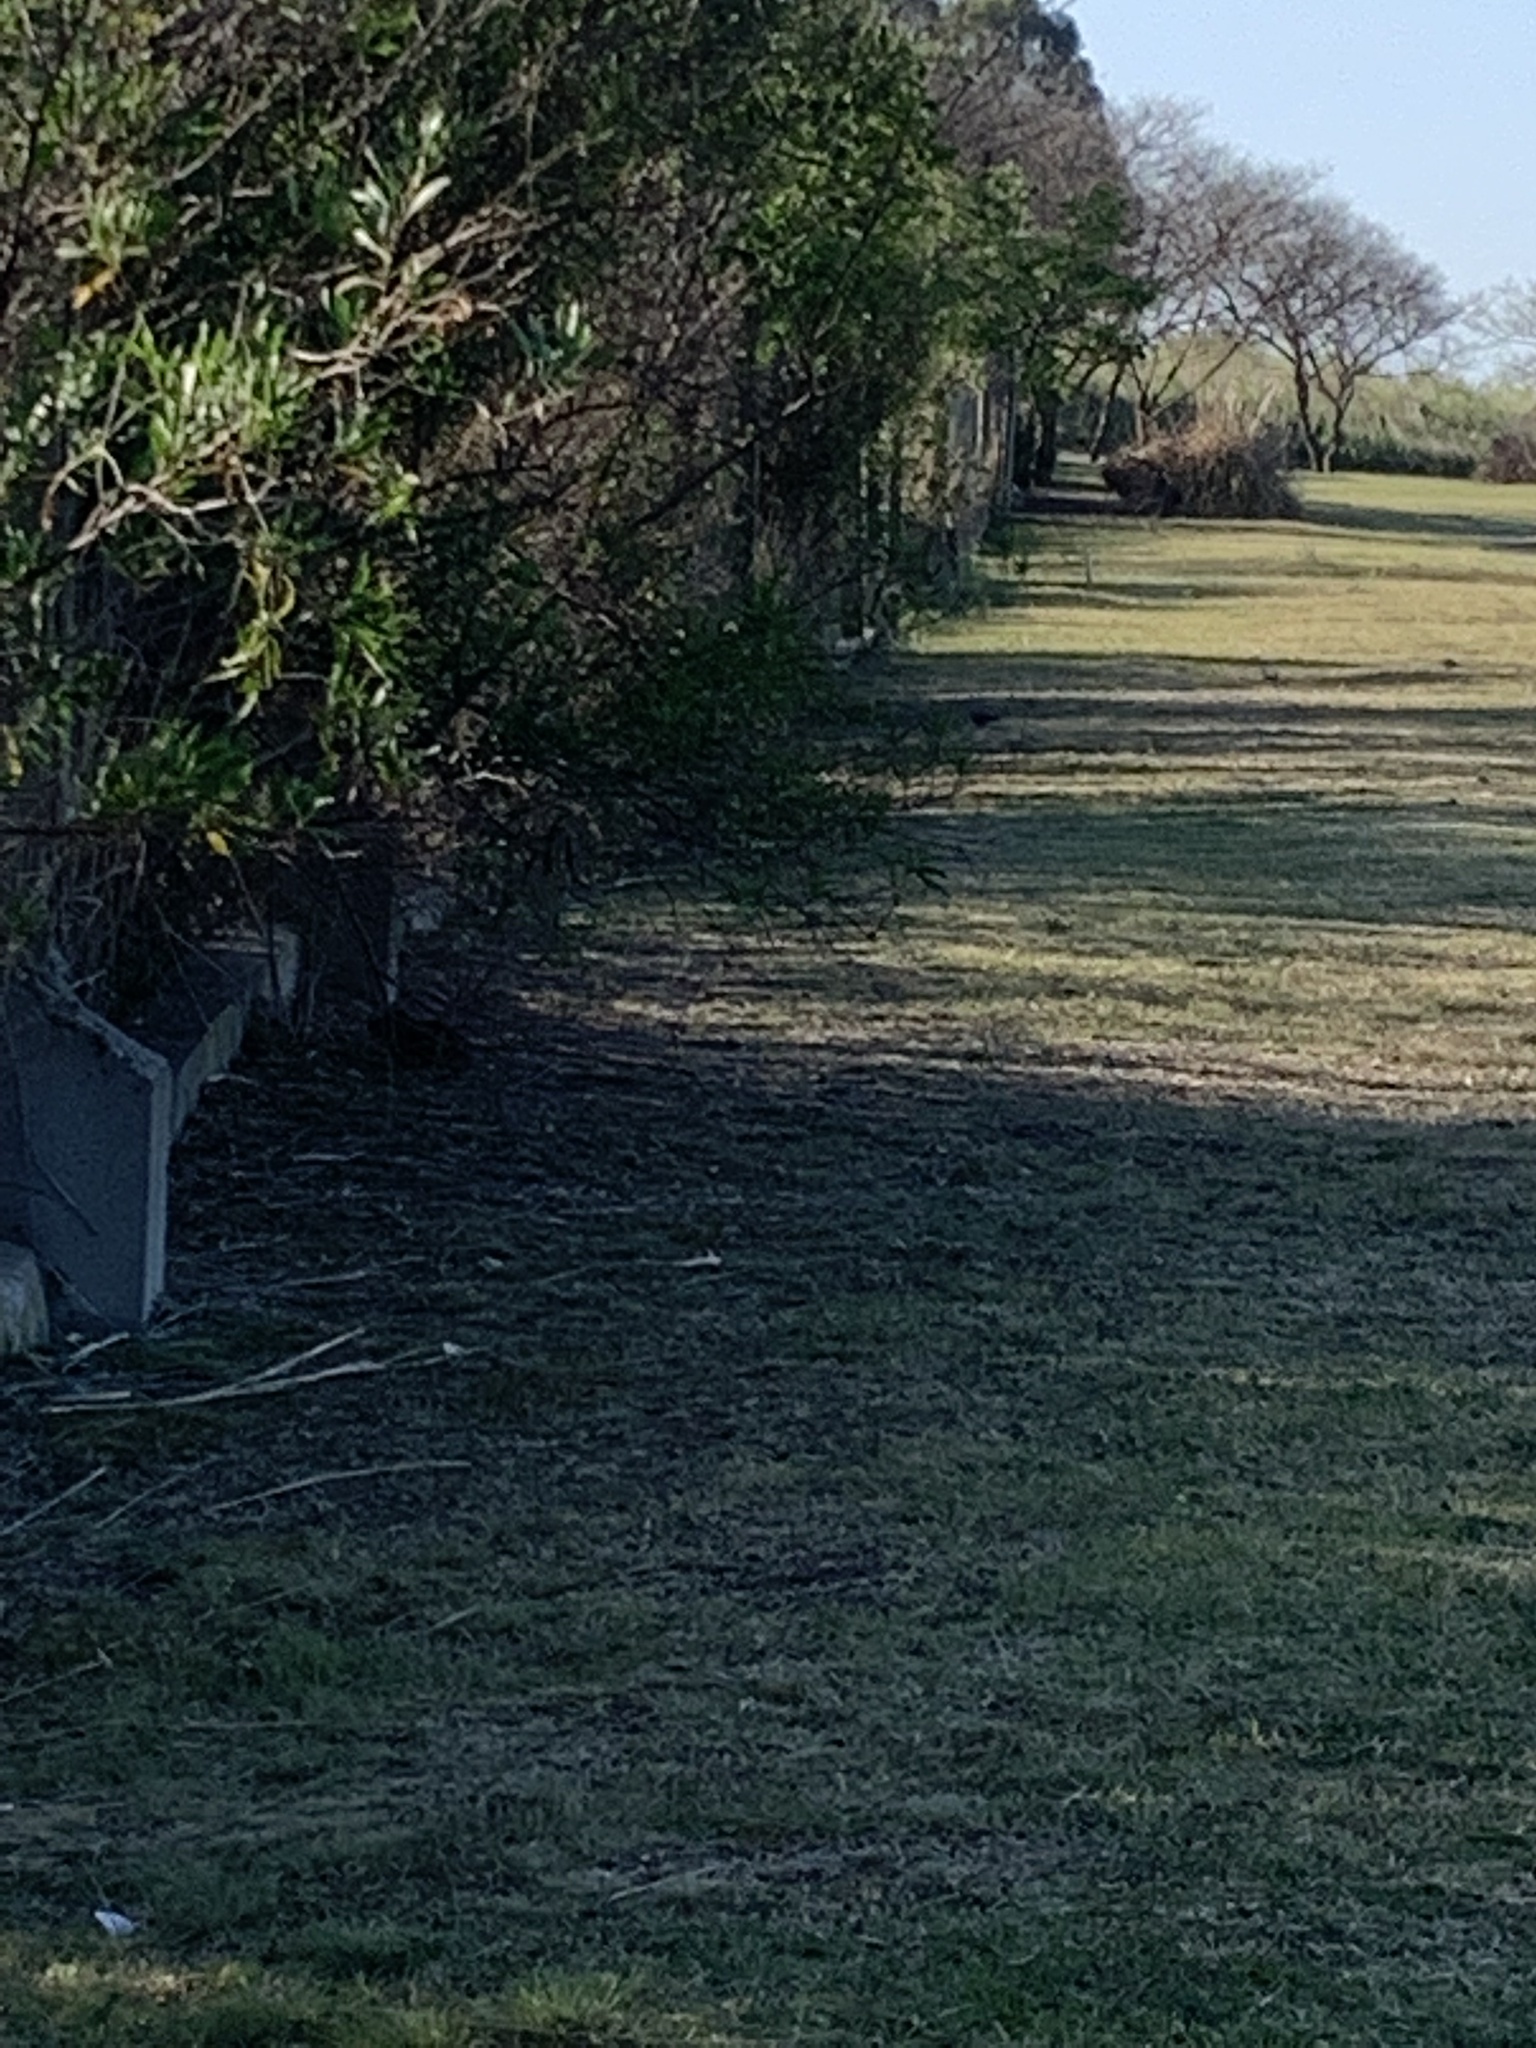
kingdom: Animalia
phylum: Chordata
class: Mammalia
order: Rodentia
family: Caviidae
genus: Cavia
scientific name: Cavia aperea
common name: Brazilian guinea pig
